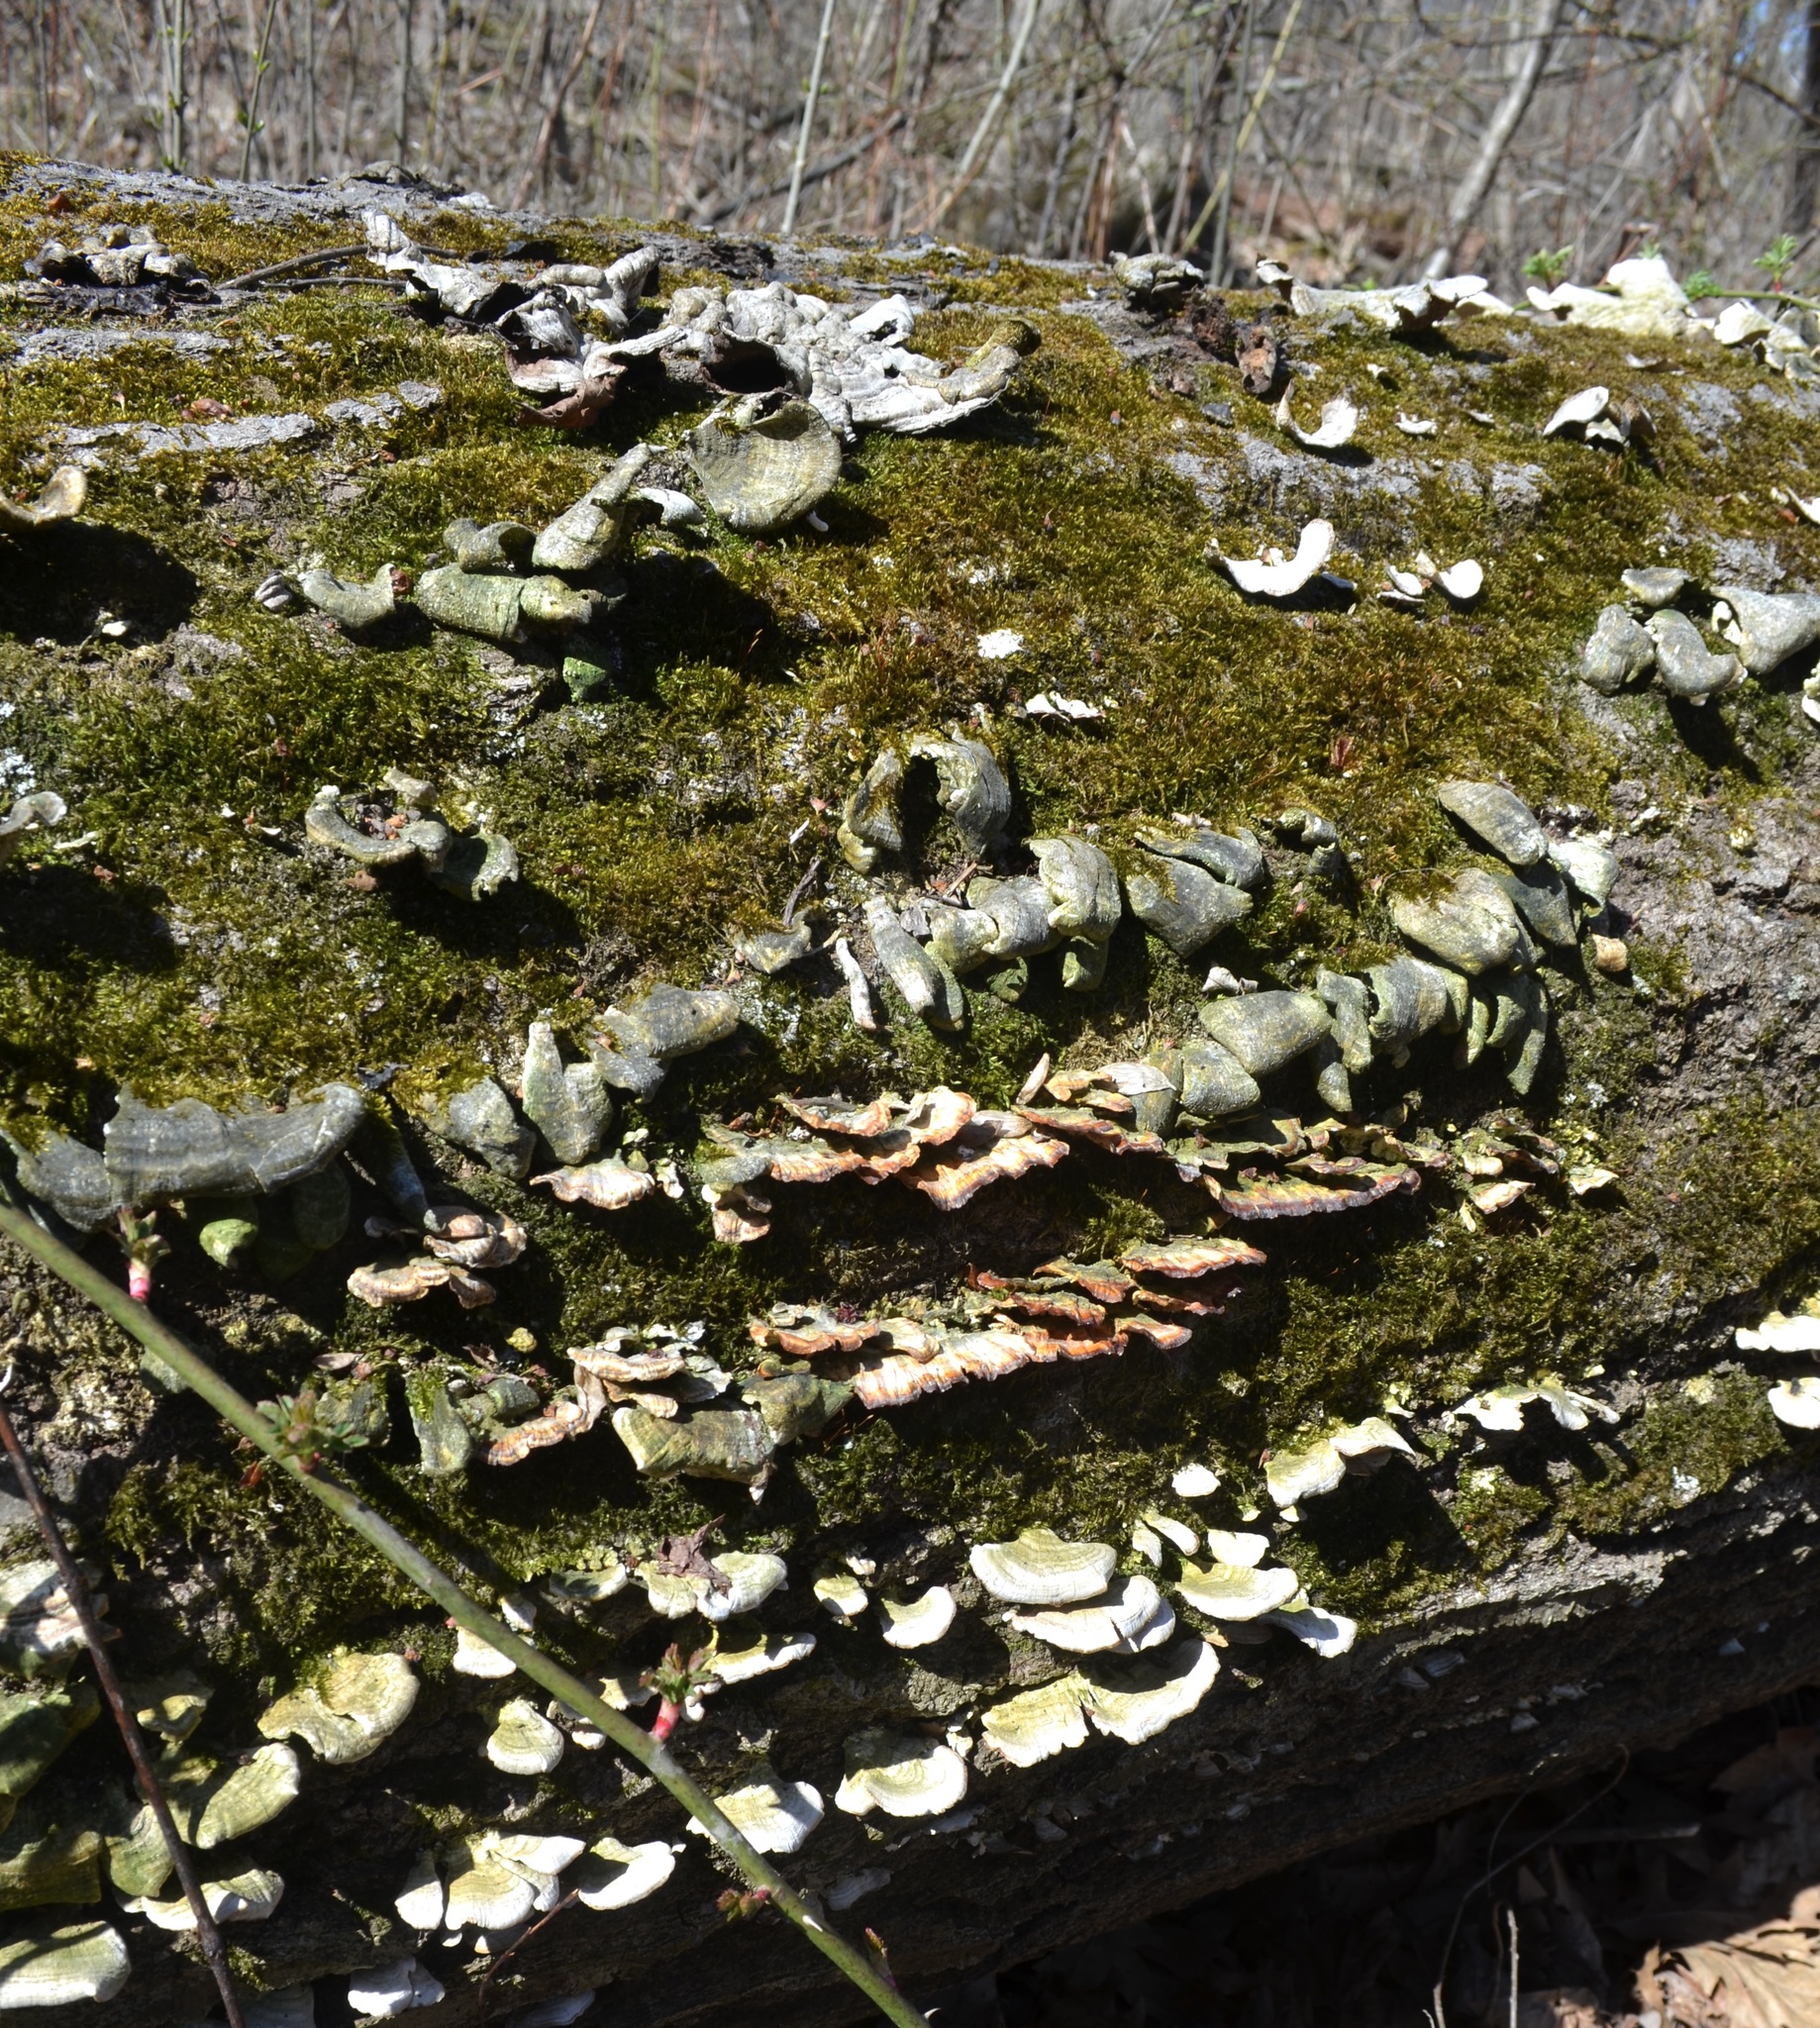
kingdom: Fungi
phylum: Basidiomycota
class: Agaricomycetes
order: Polyporales
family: Polyporaceae
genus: Trametes
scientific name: Trametes versicolor
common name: Turkeytail
